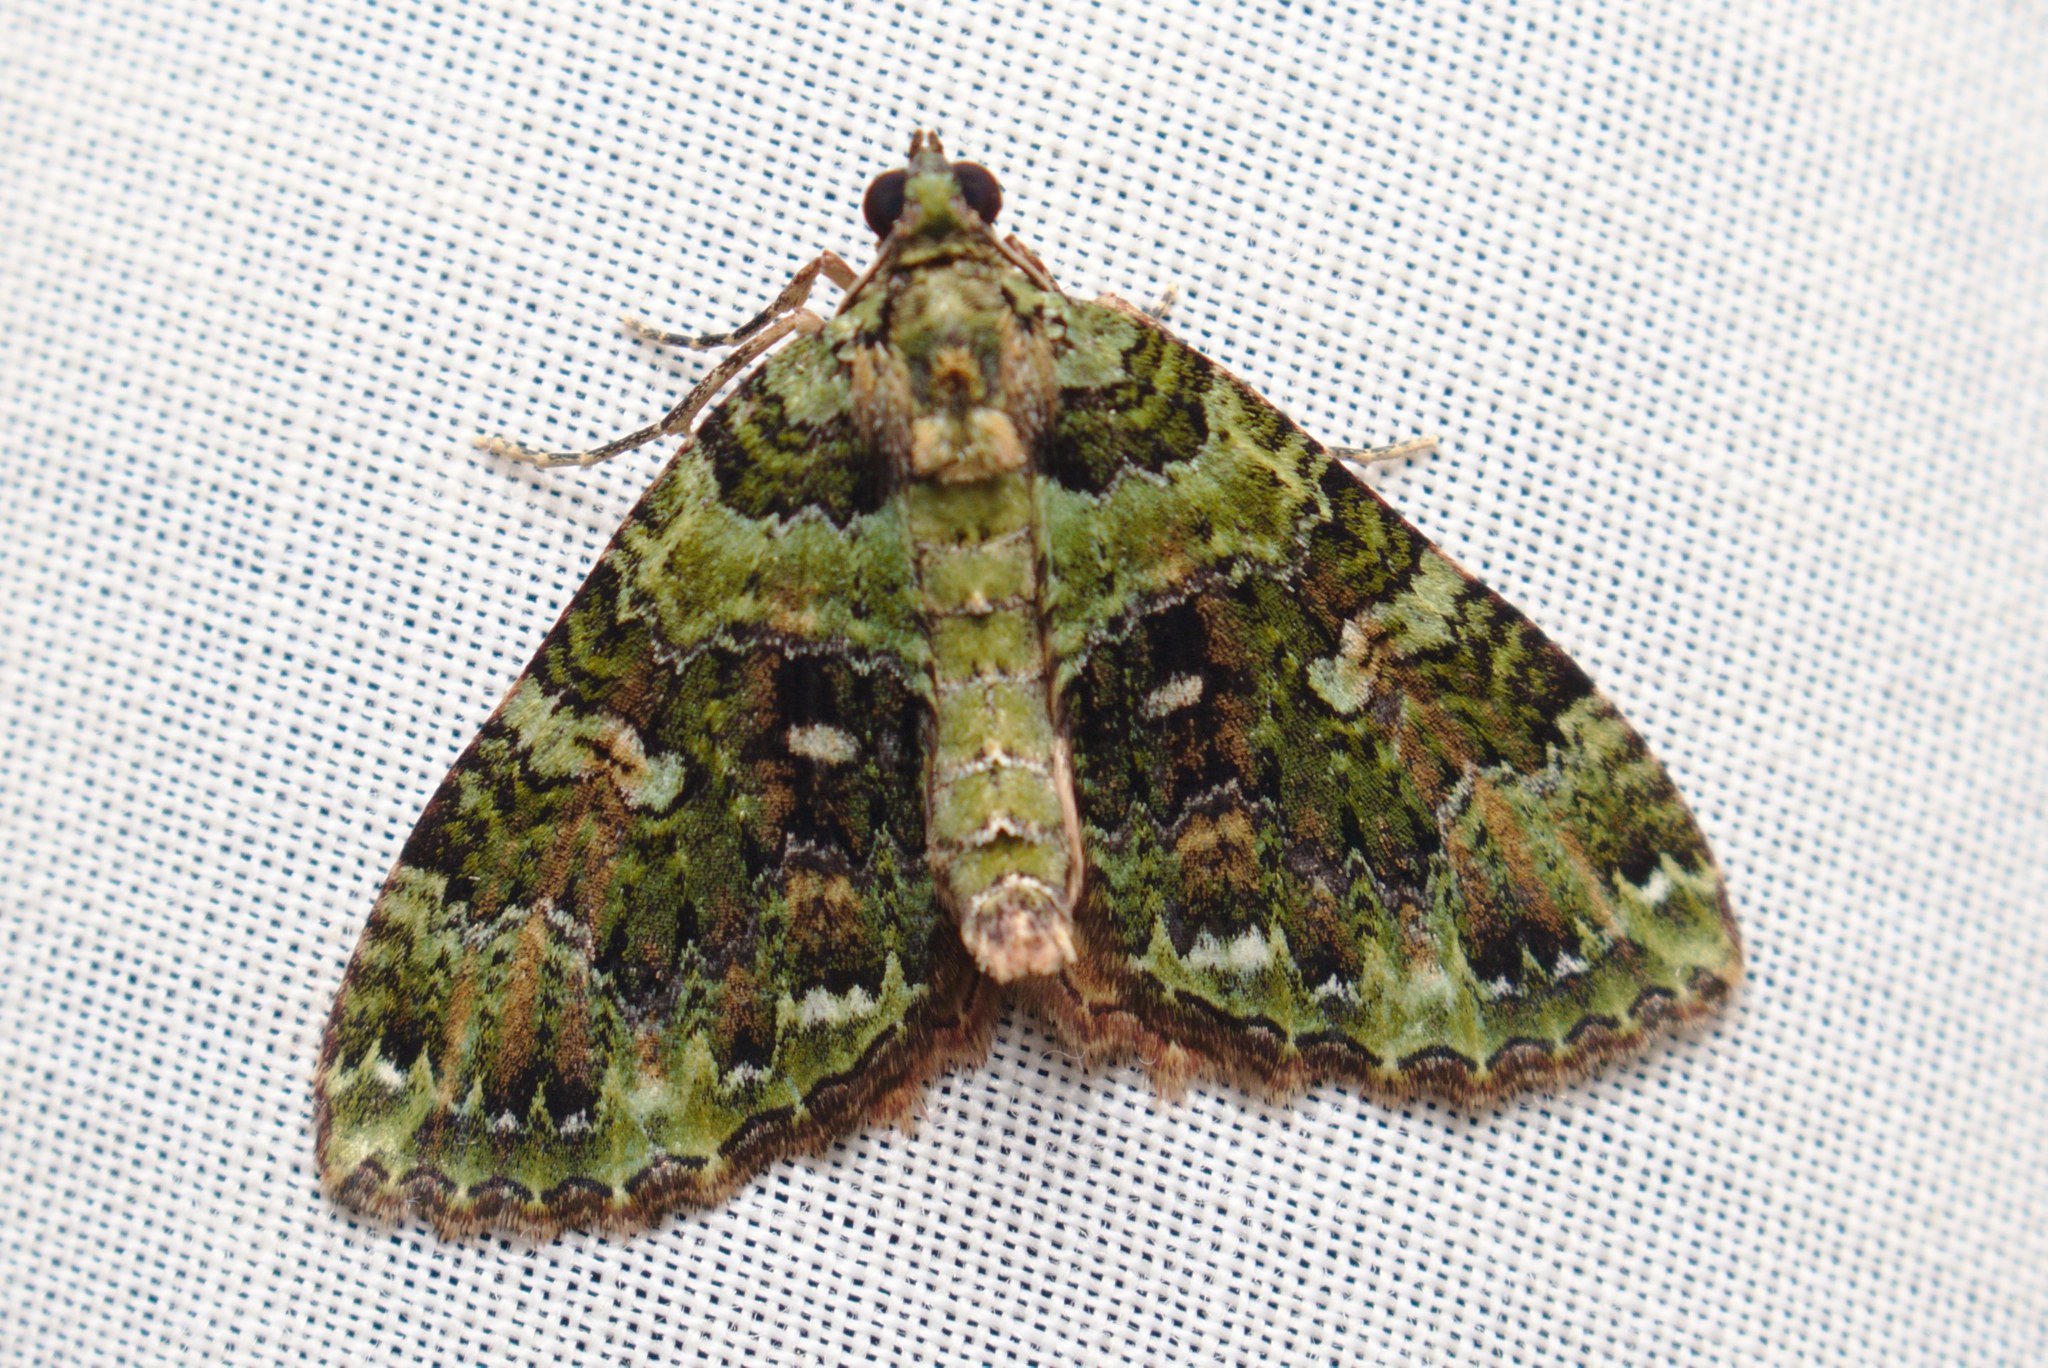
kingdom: Animalia
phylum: Arthropoda
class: Insecta
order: Lepidoptera
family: Geometridae
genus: Austrocidaria
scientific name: Austrocidaria similata
